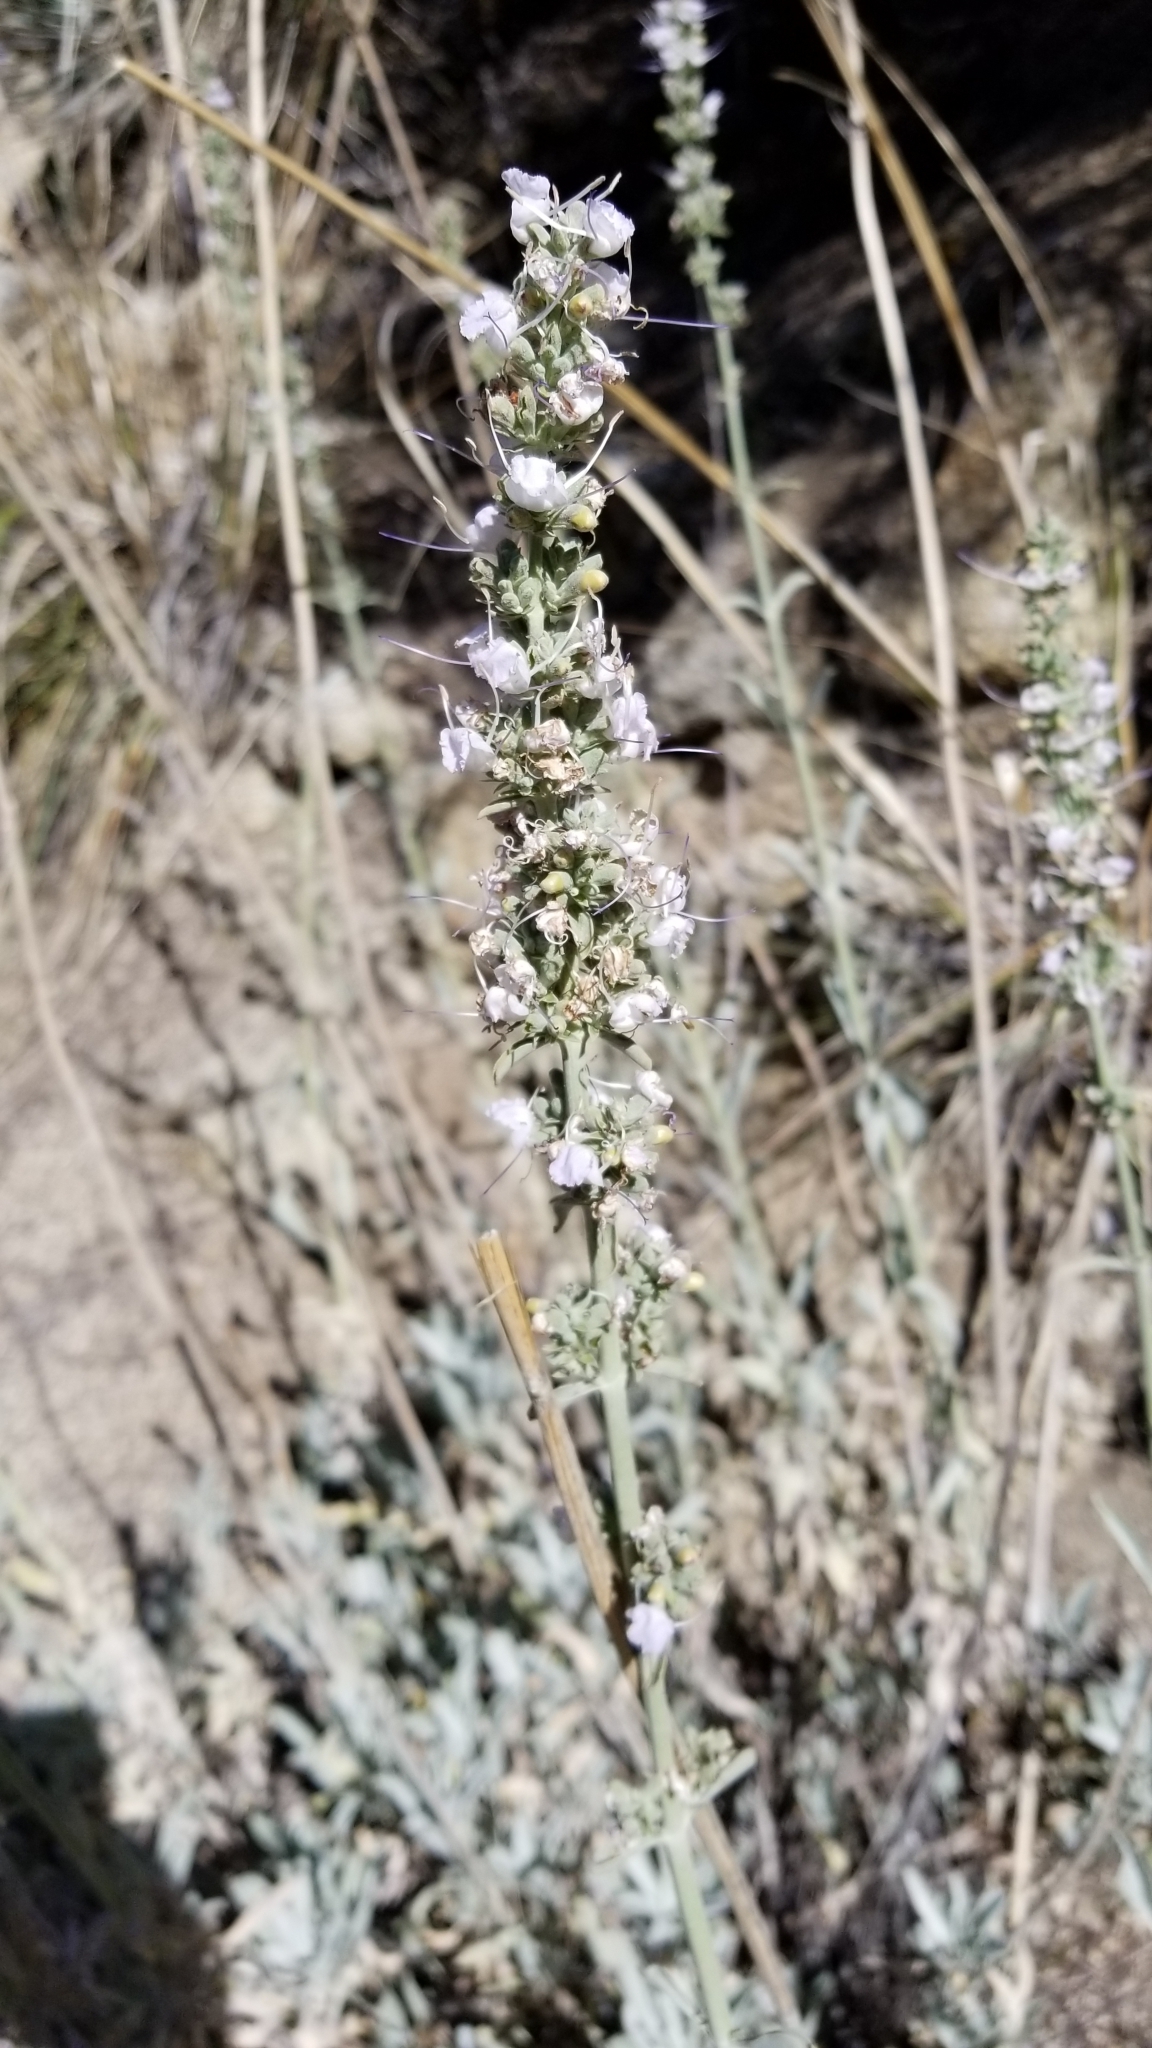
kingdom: Plantae
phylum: Tracheophyta
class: Magnoliopsida
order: Lamiales
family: Lamiaceae
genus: Salvia
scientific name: Salvia apiana
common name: White sage
